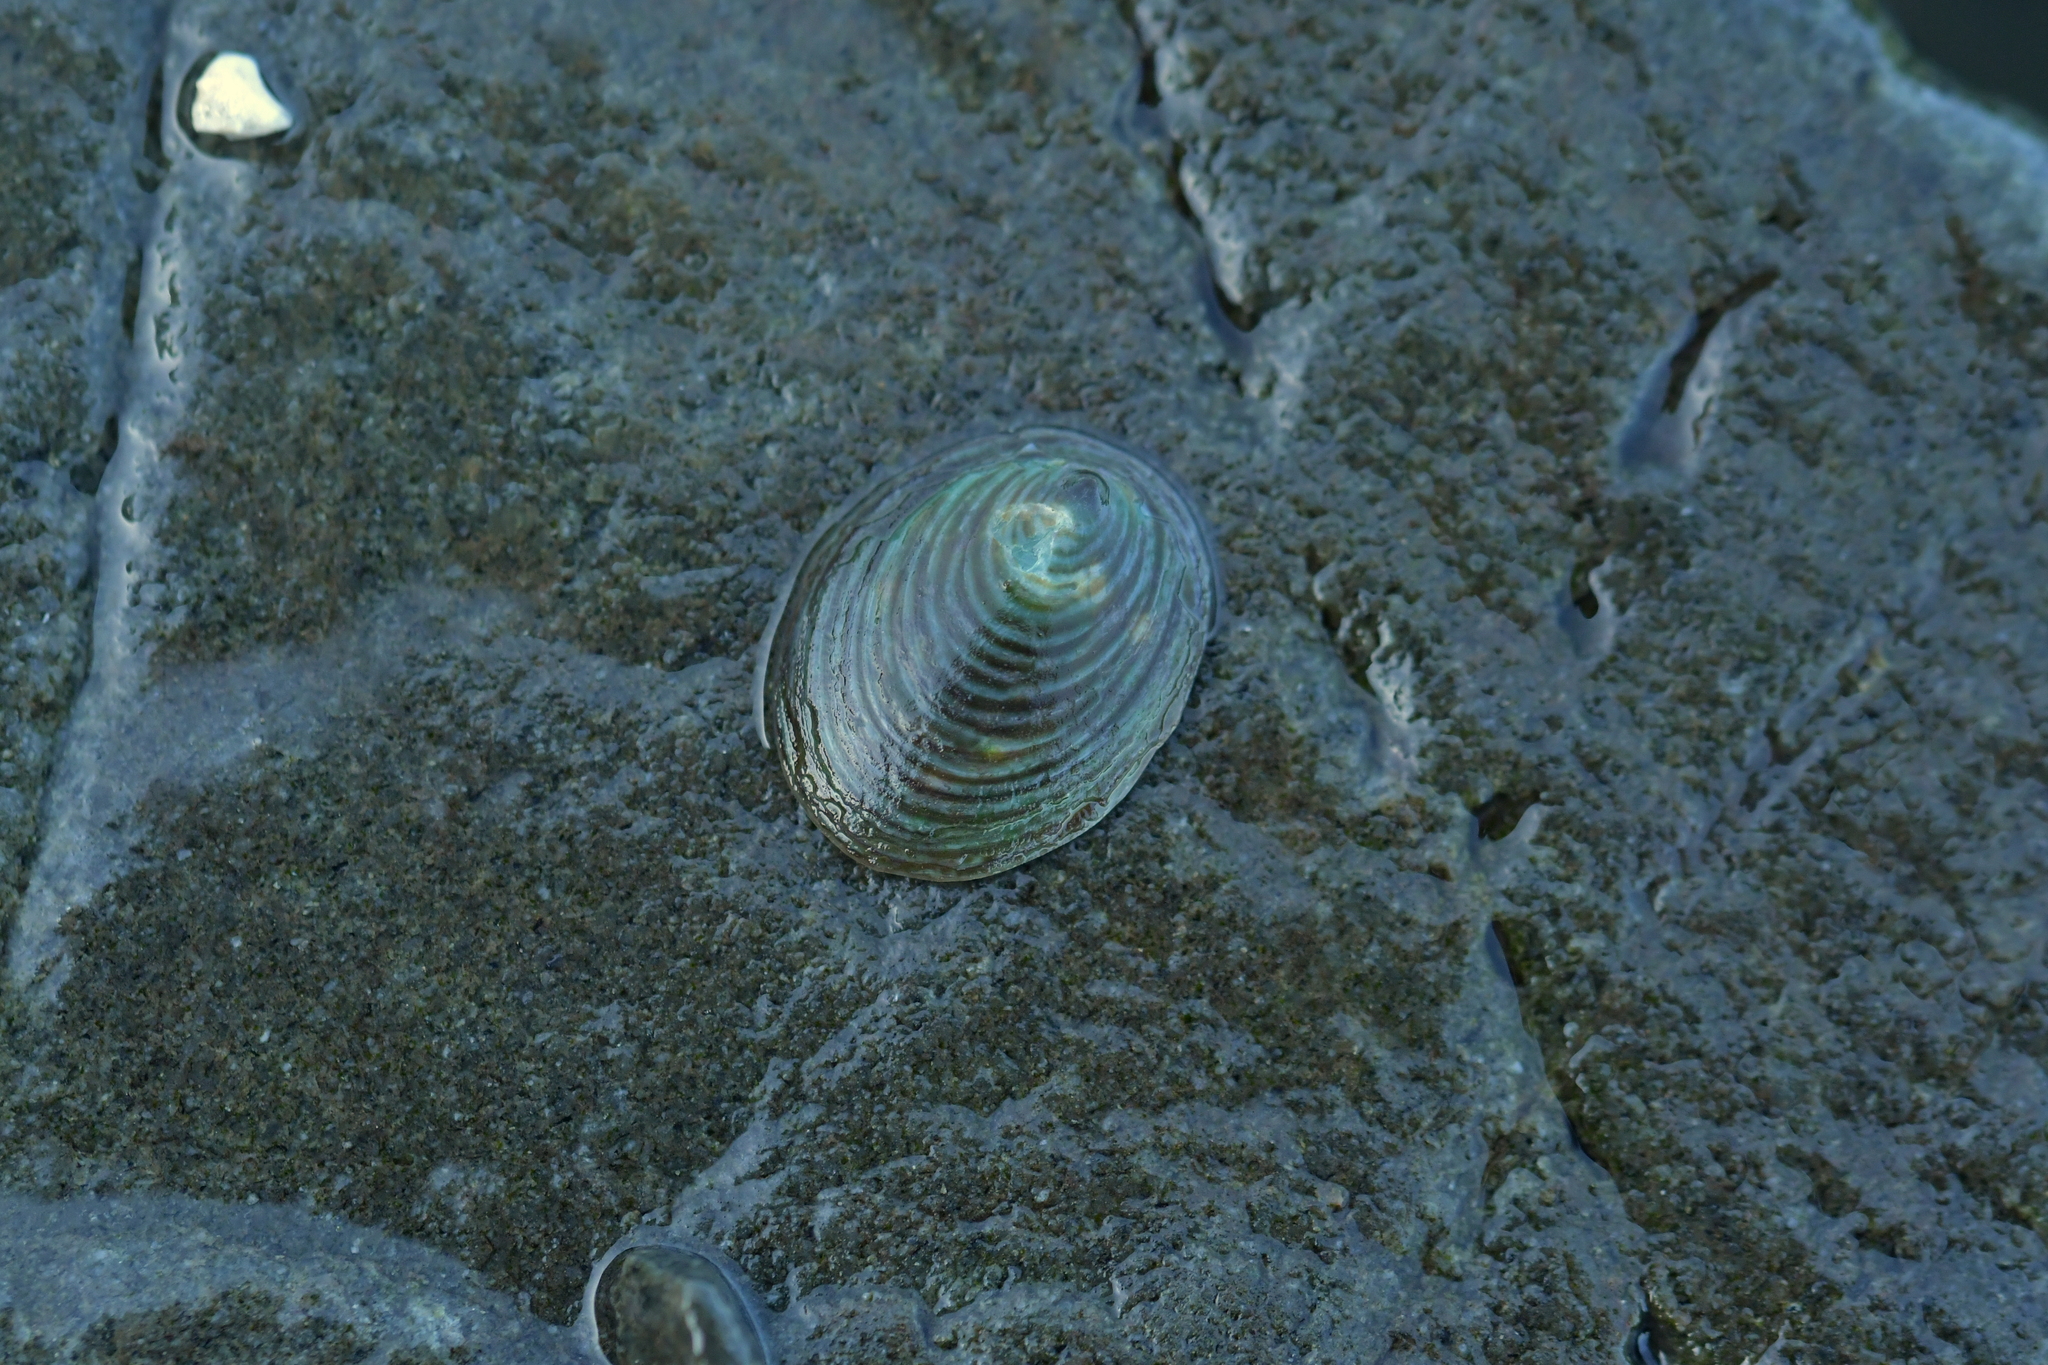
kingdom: Animalia
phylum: Mollusca
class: Gastropoda
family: Lottiidae
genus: Atalacmea
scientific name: Atalacmea fragilis
